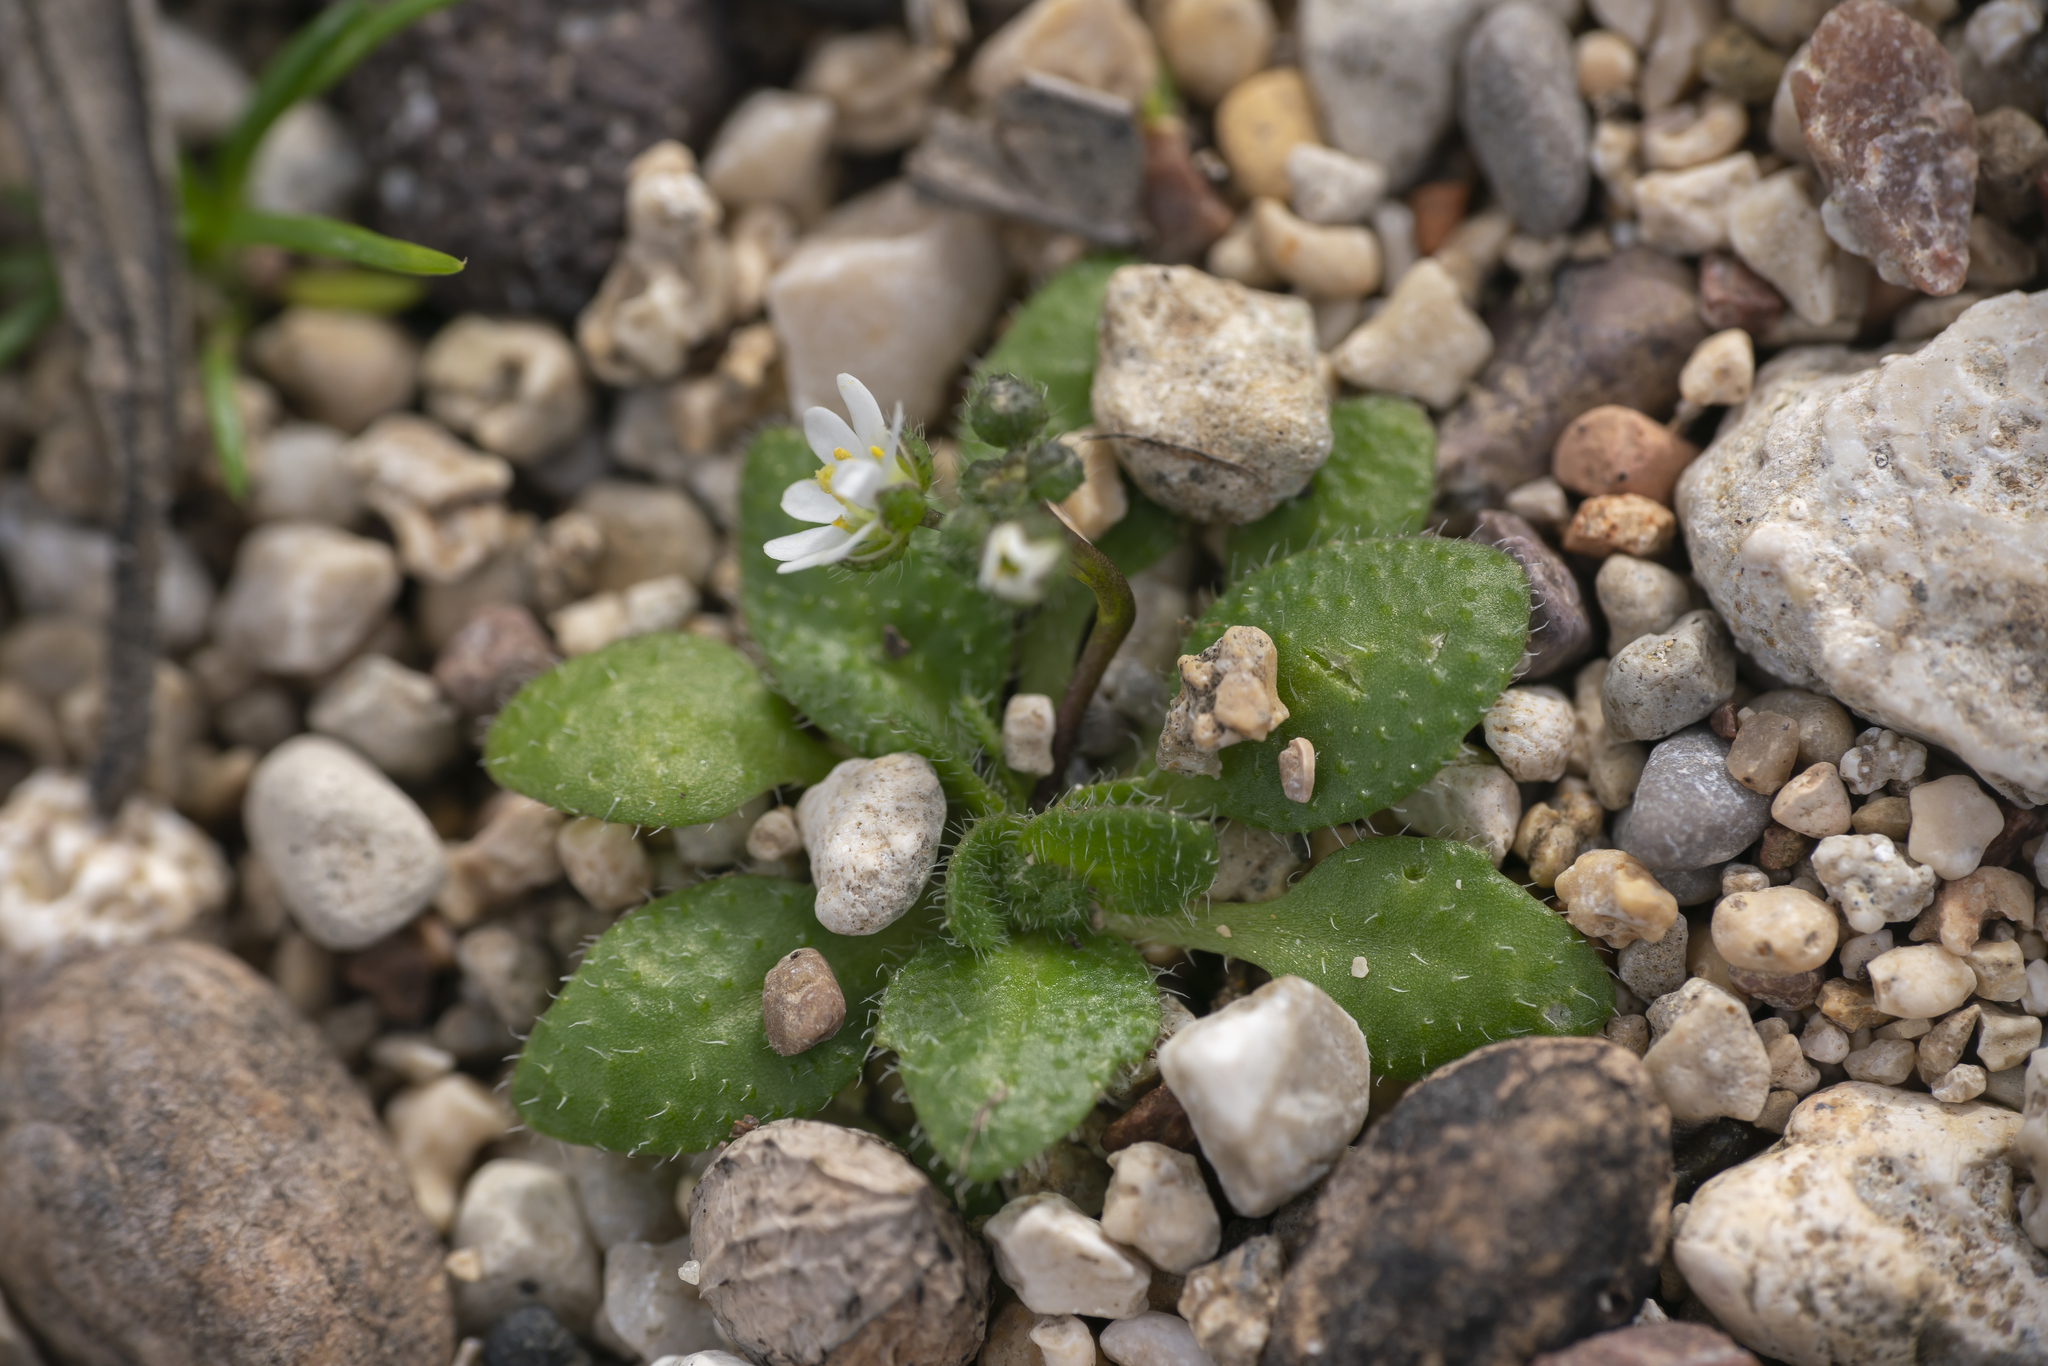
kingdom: Plantae
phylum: Tracheophyta
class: Magnoliopsida
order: Brassicales
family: Brassicaceae
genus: Draba
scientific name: Draba verna
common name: Spring draba
